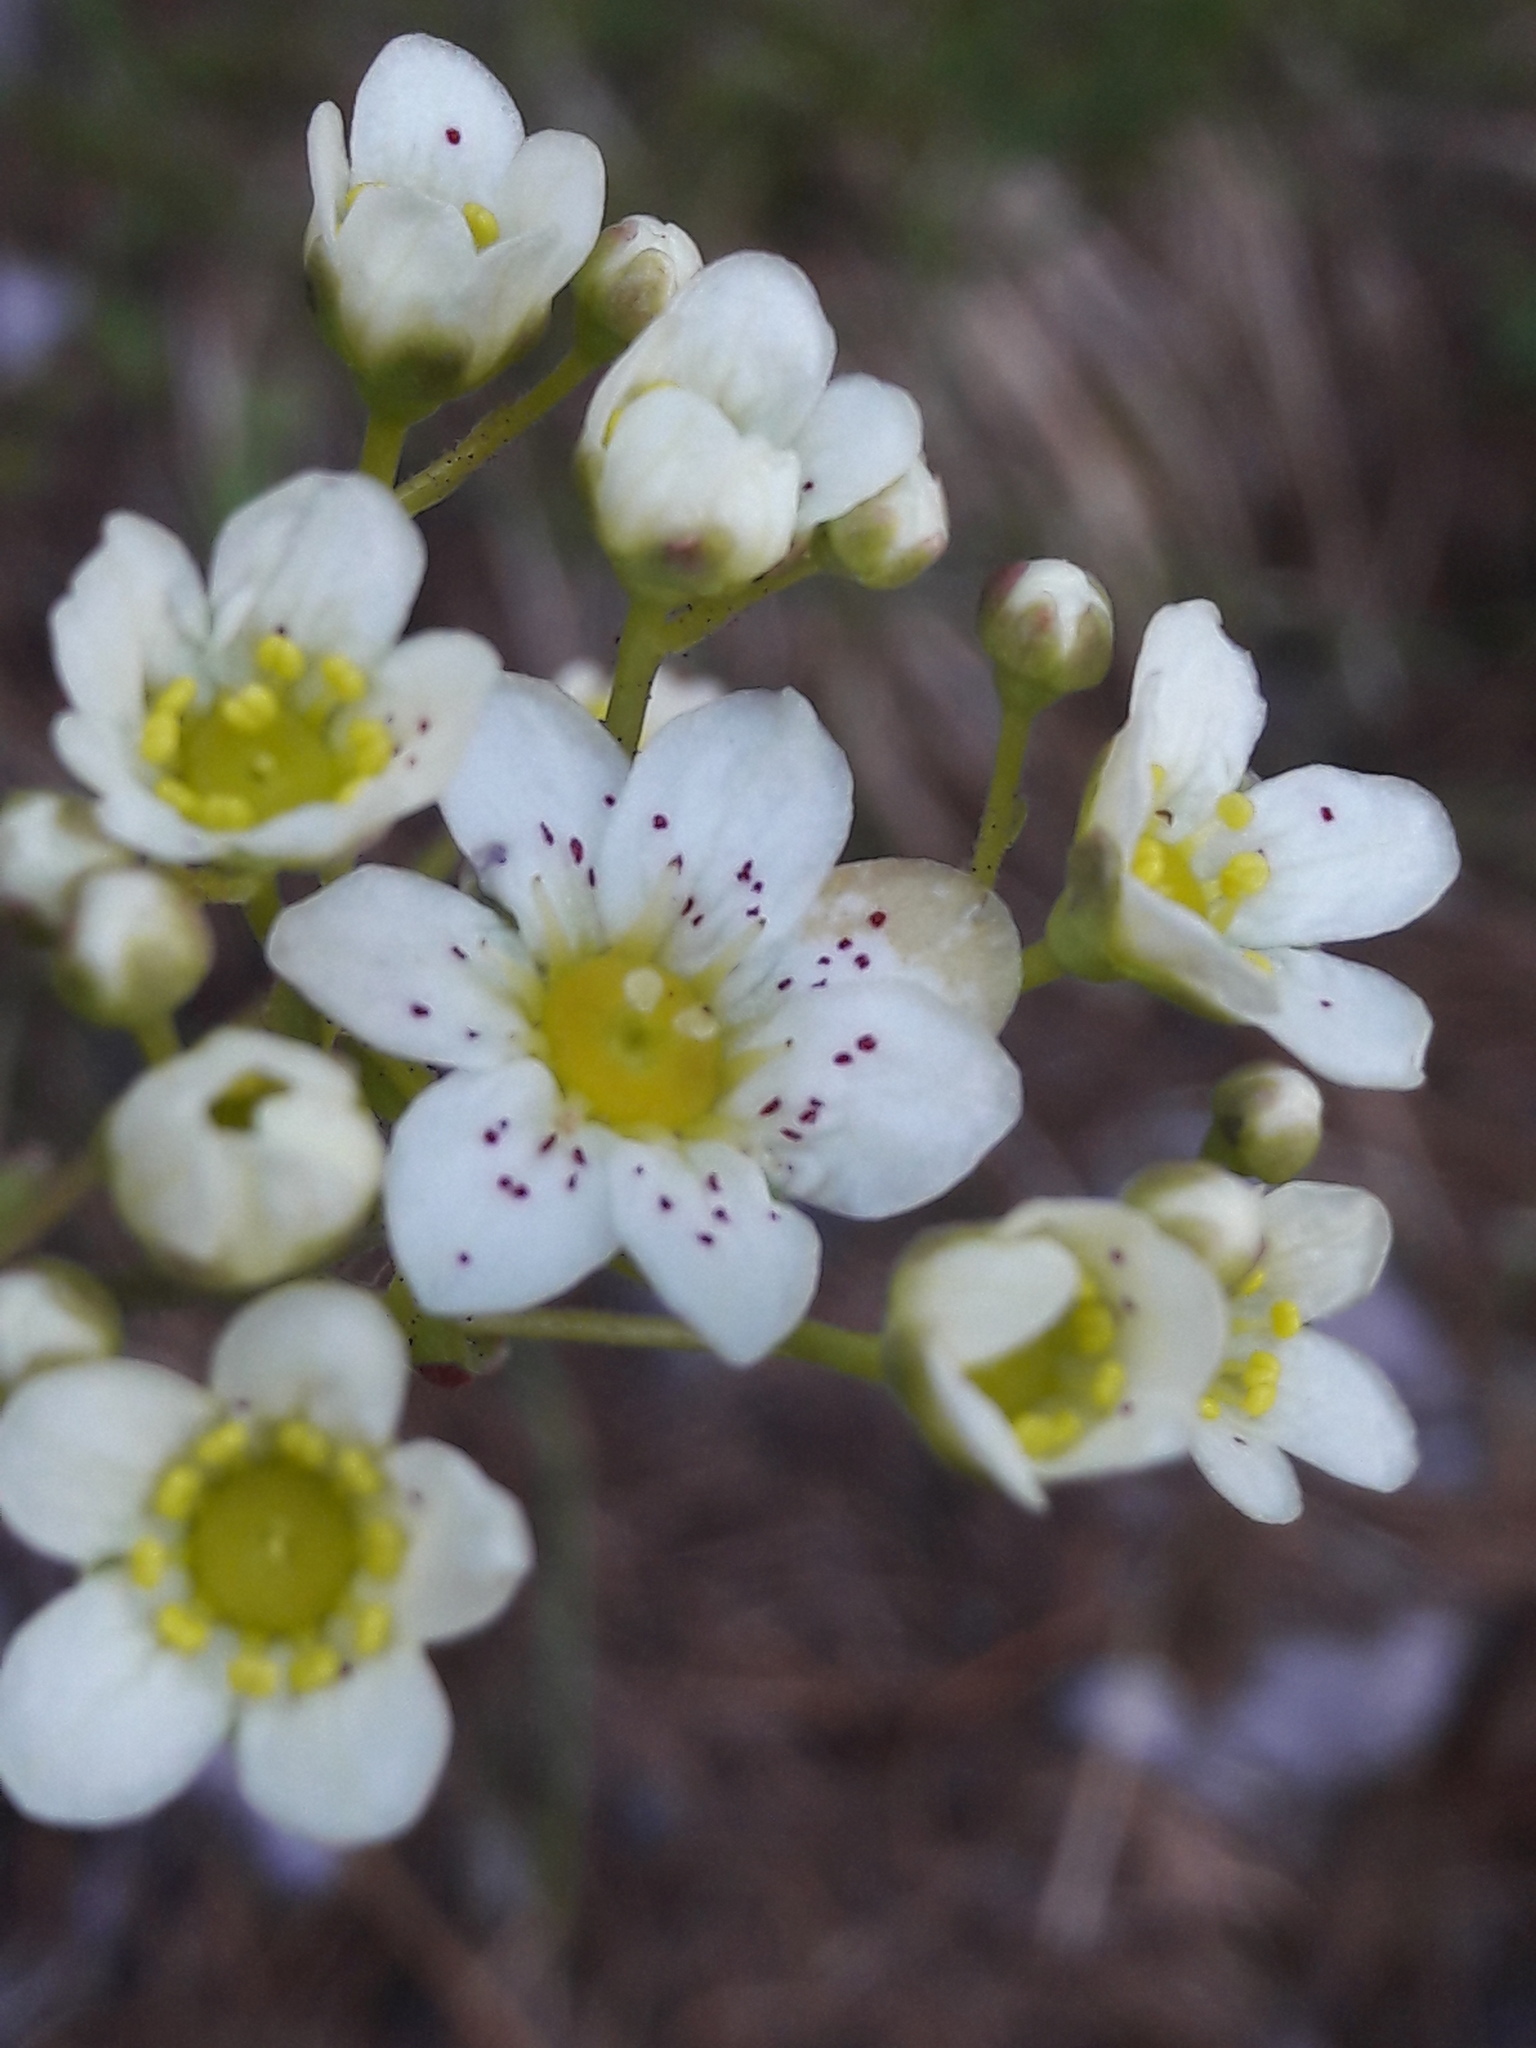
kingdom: Plantae
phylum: Tracheophyta
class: Magnoliopsida
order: Saxifragales
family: Saxifragaceae
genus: Saxifraga
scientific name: Saxifraga paniculata
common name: Livelong saxifrage
